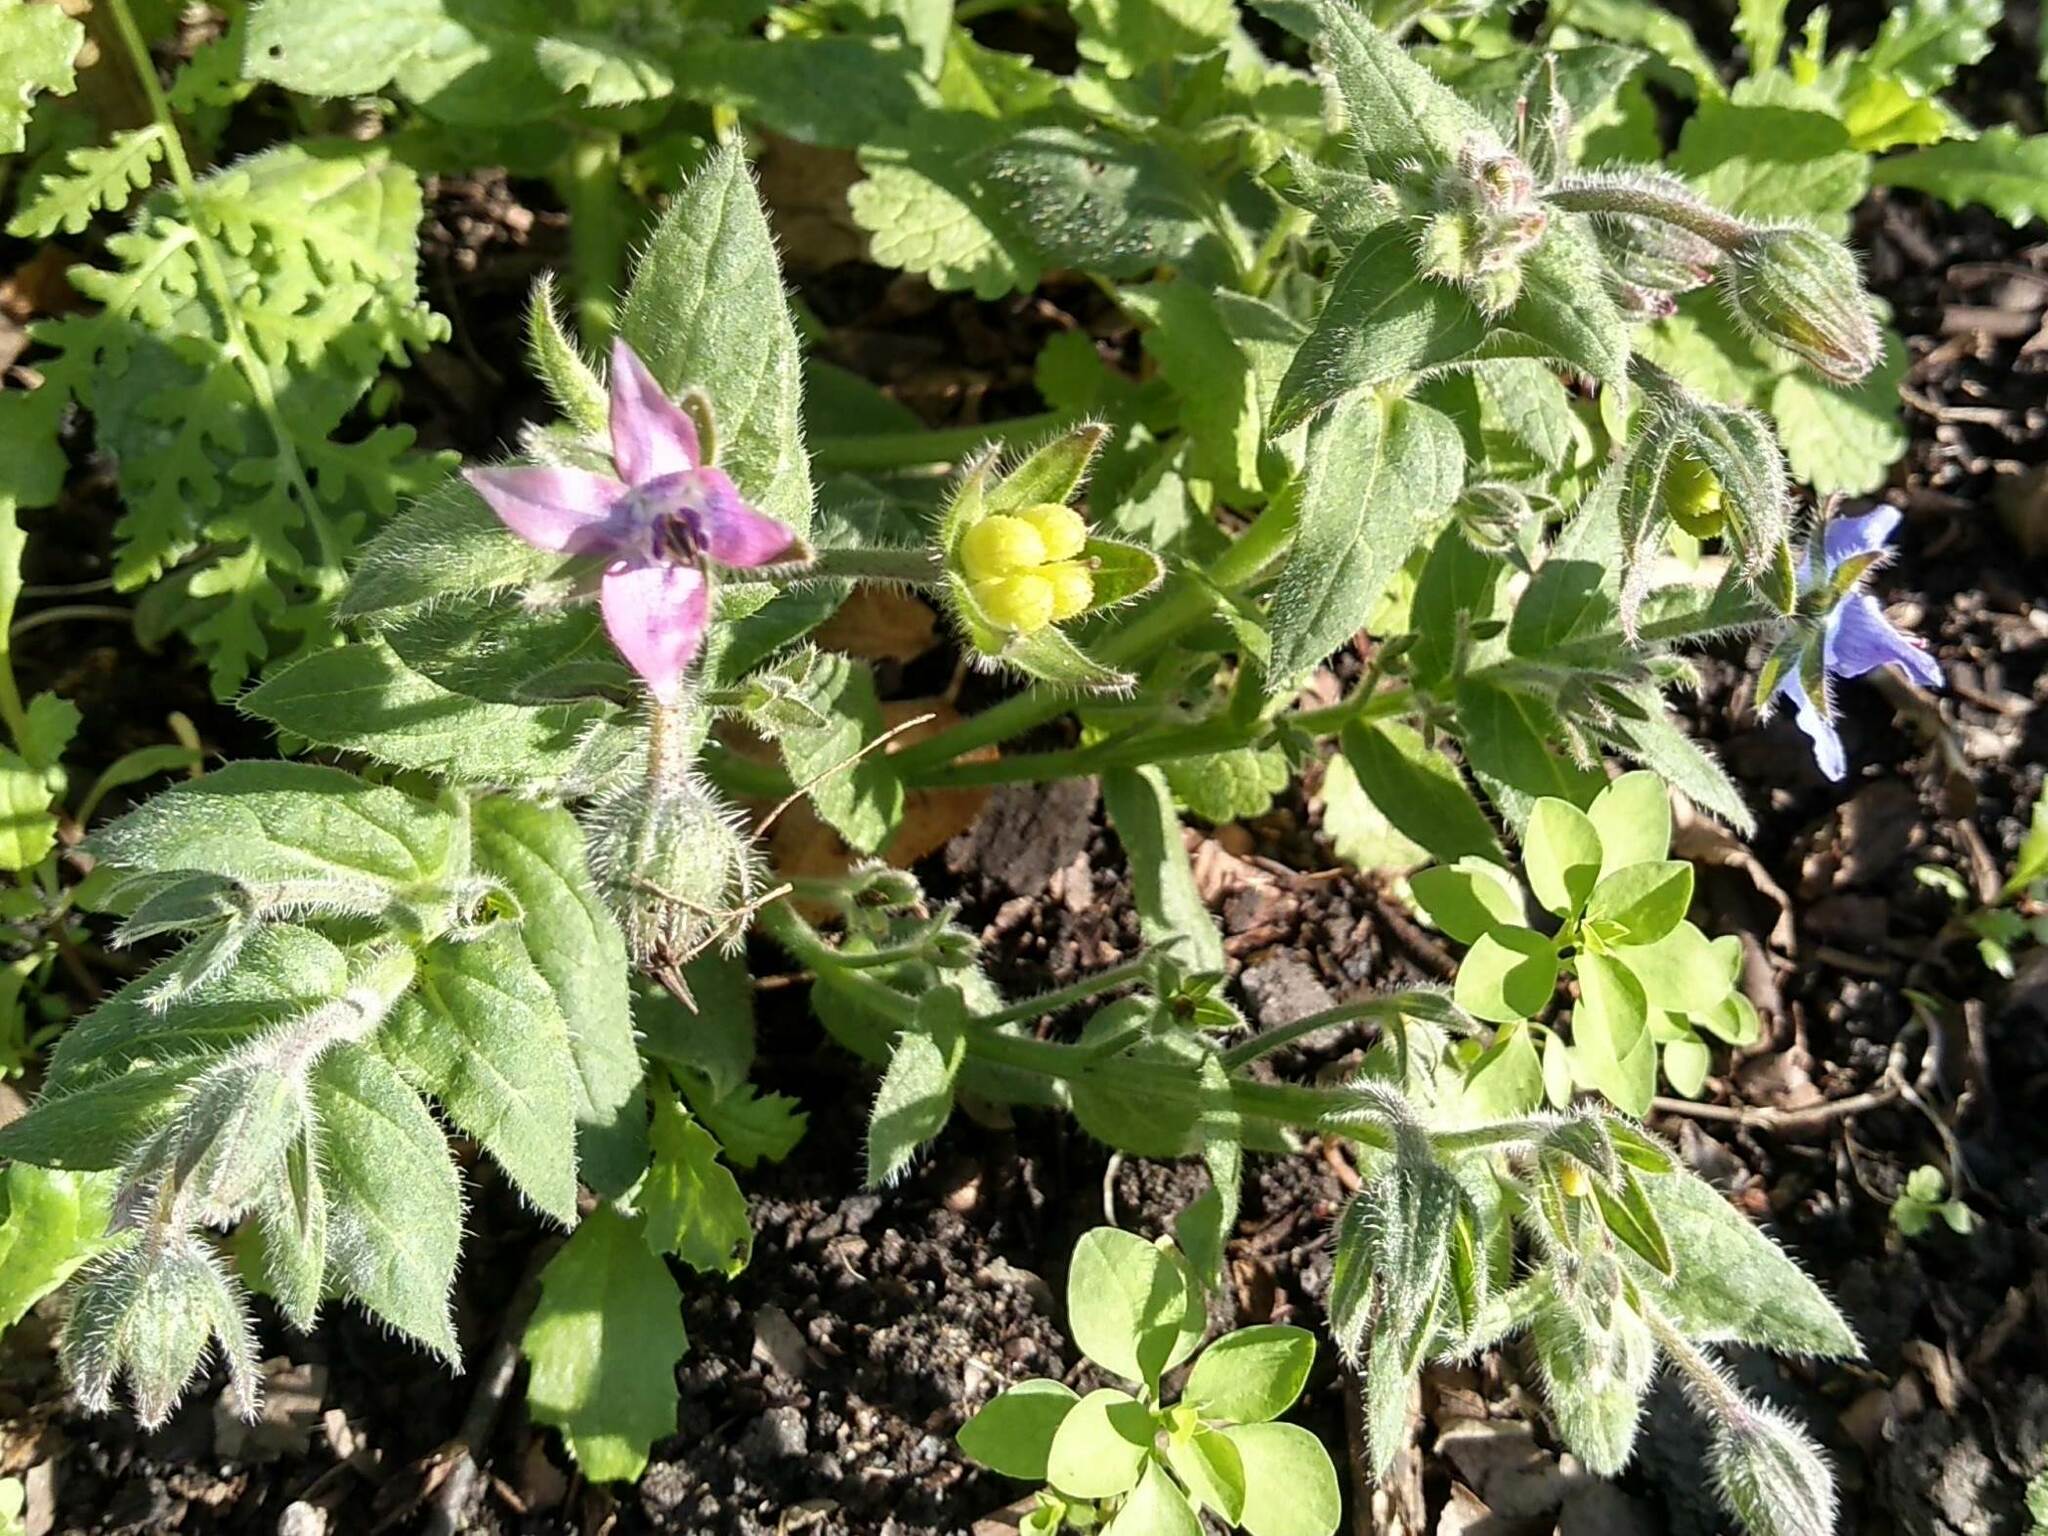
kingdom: Plantae
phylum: Tracheophyta
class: Magnoliopsida
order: Boraginales
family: Boraginaceae
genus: Borago
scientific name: Borago officinalis
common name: Borage
